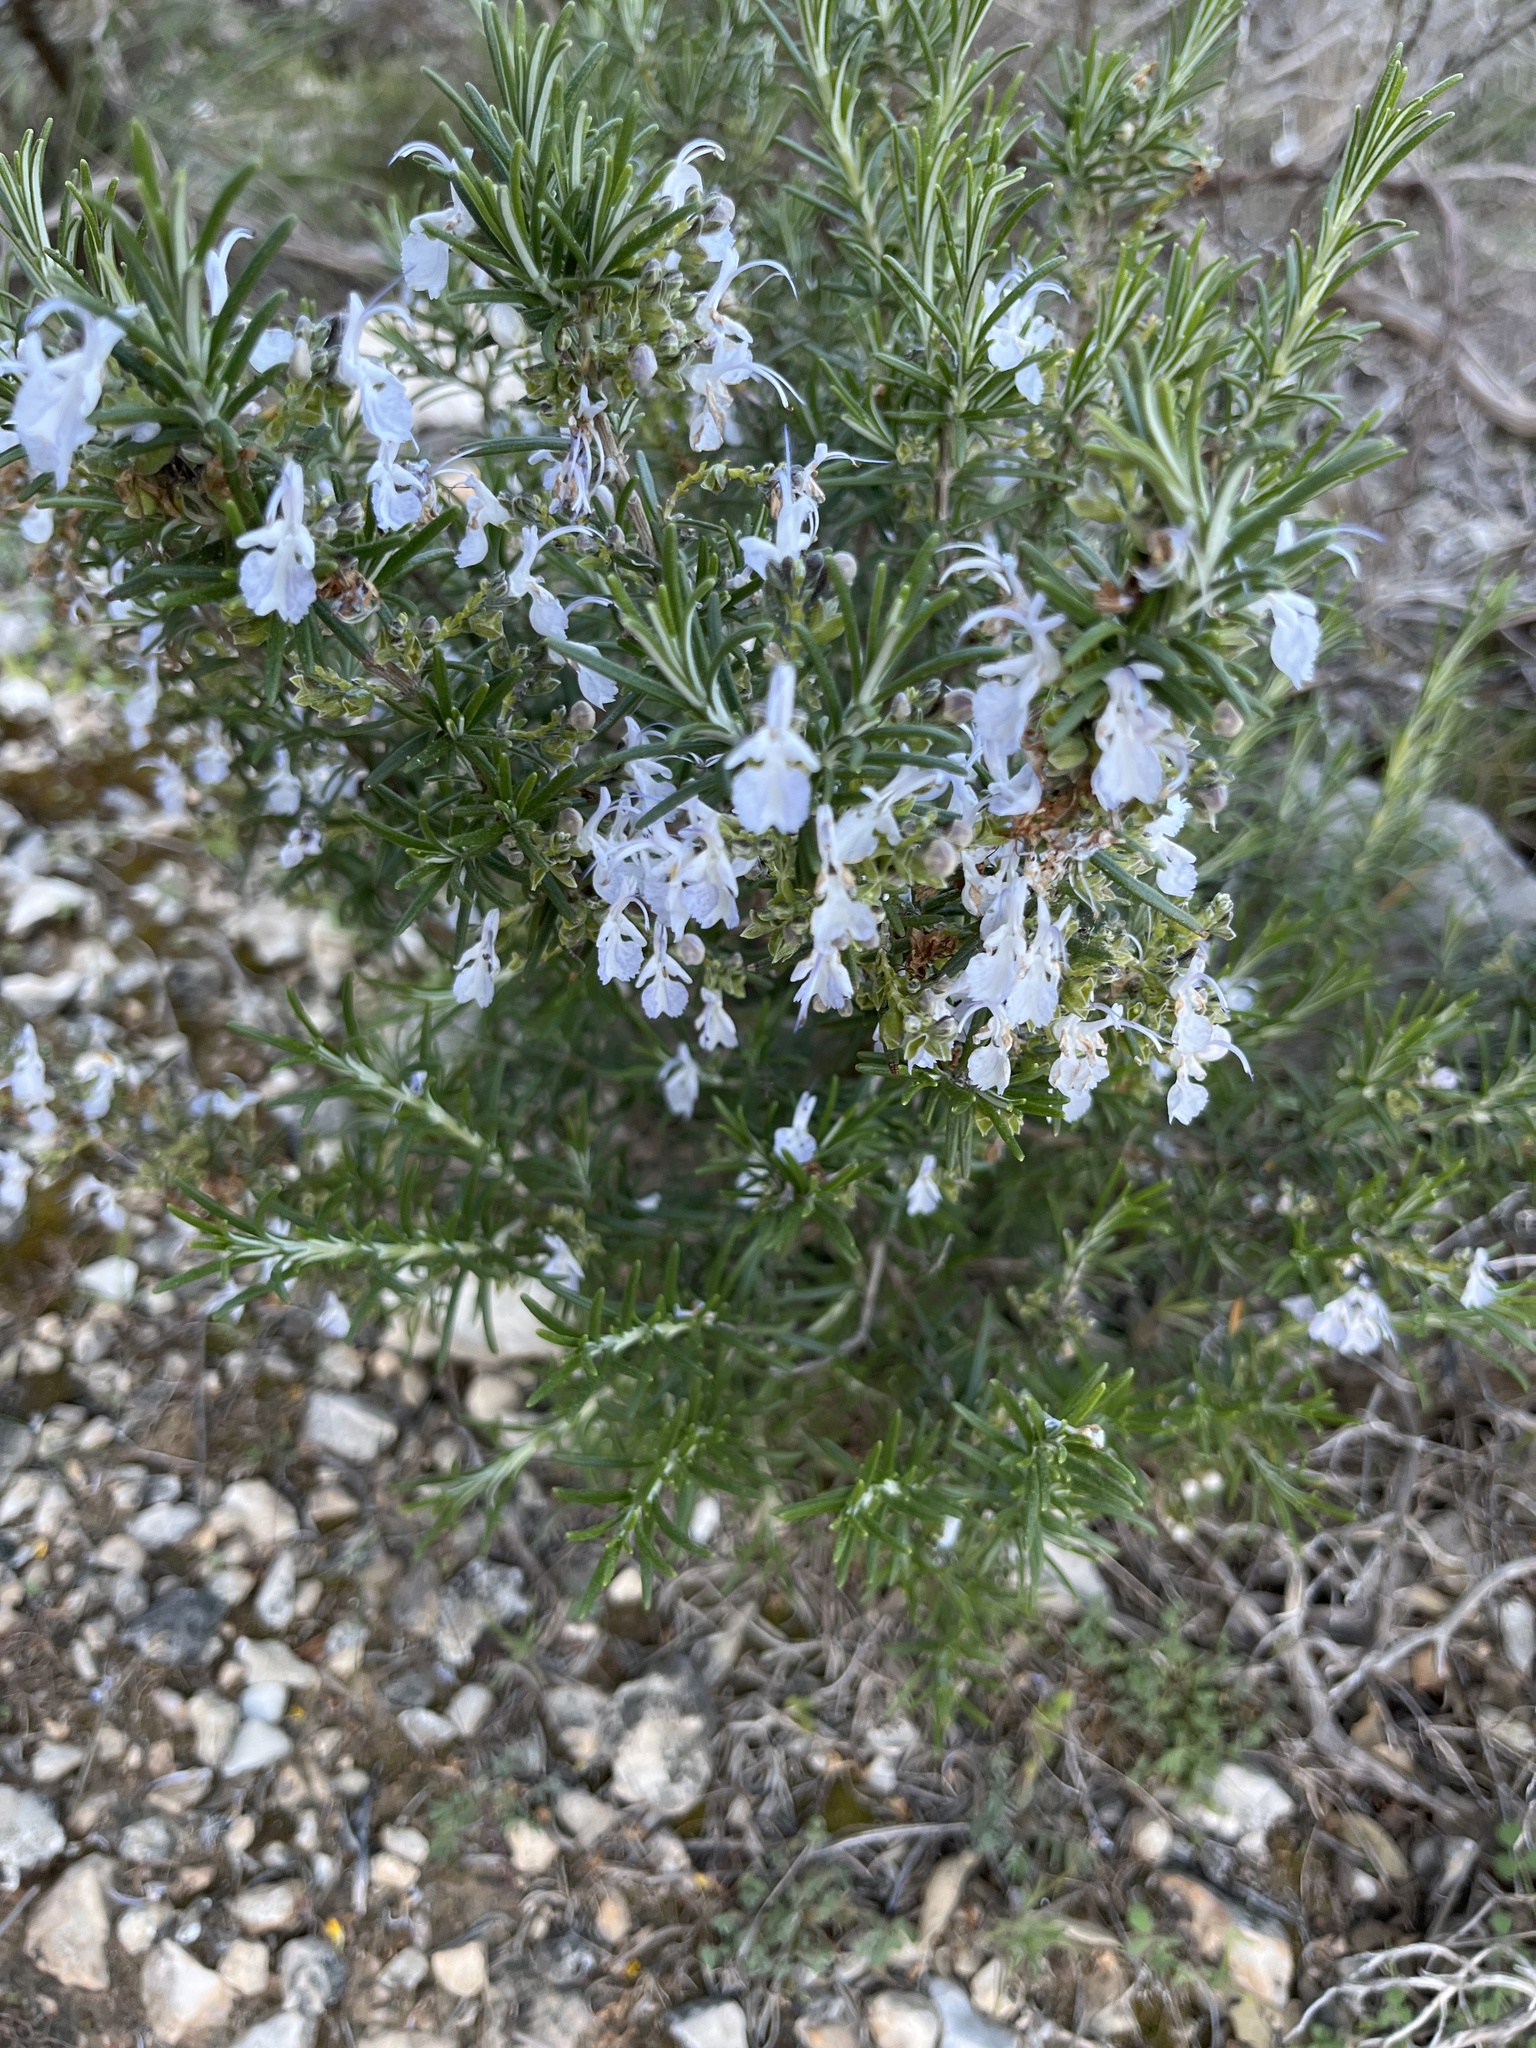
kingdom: Plantae
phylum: Tracheophyta
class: Magnoliopsida
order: Lamiales
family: Lamiaceae
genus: Salvia
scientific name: Salvia rosmarinus
